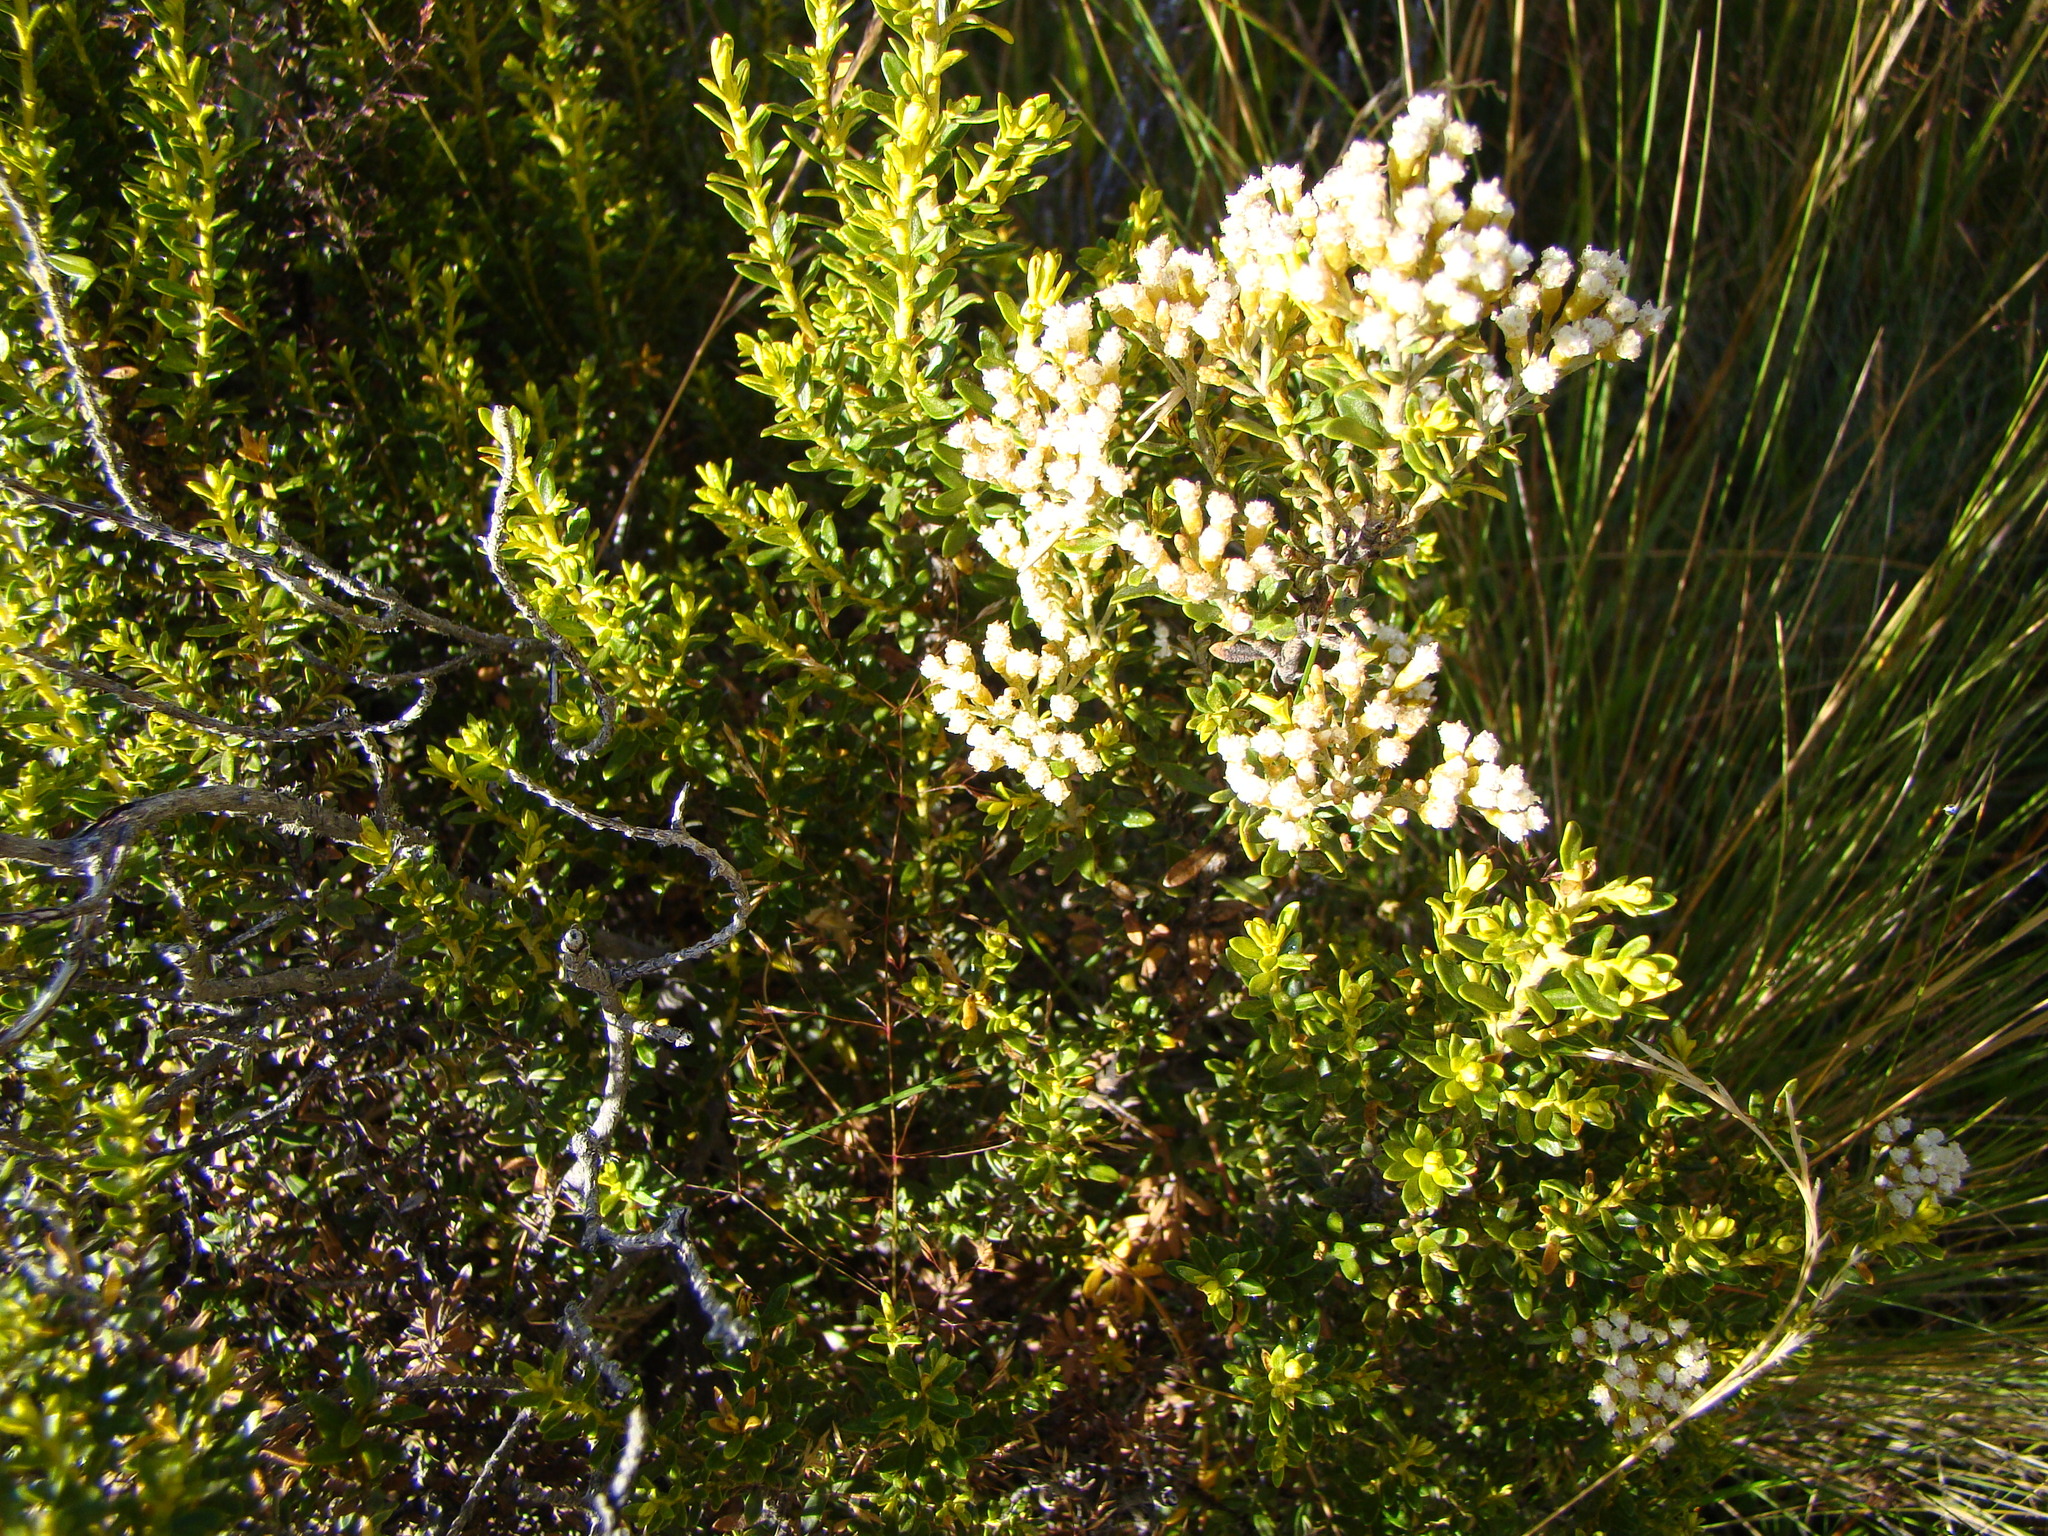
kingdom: Plantae
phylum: Tracheophyta
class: Magnoliopsida
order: Asterales
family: Asteraceae
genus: Ozothamnus
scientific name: Ozothamnus leptophyllus
